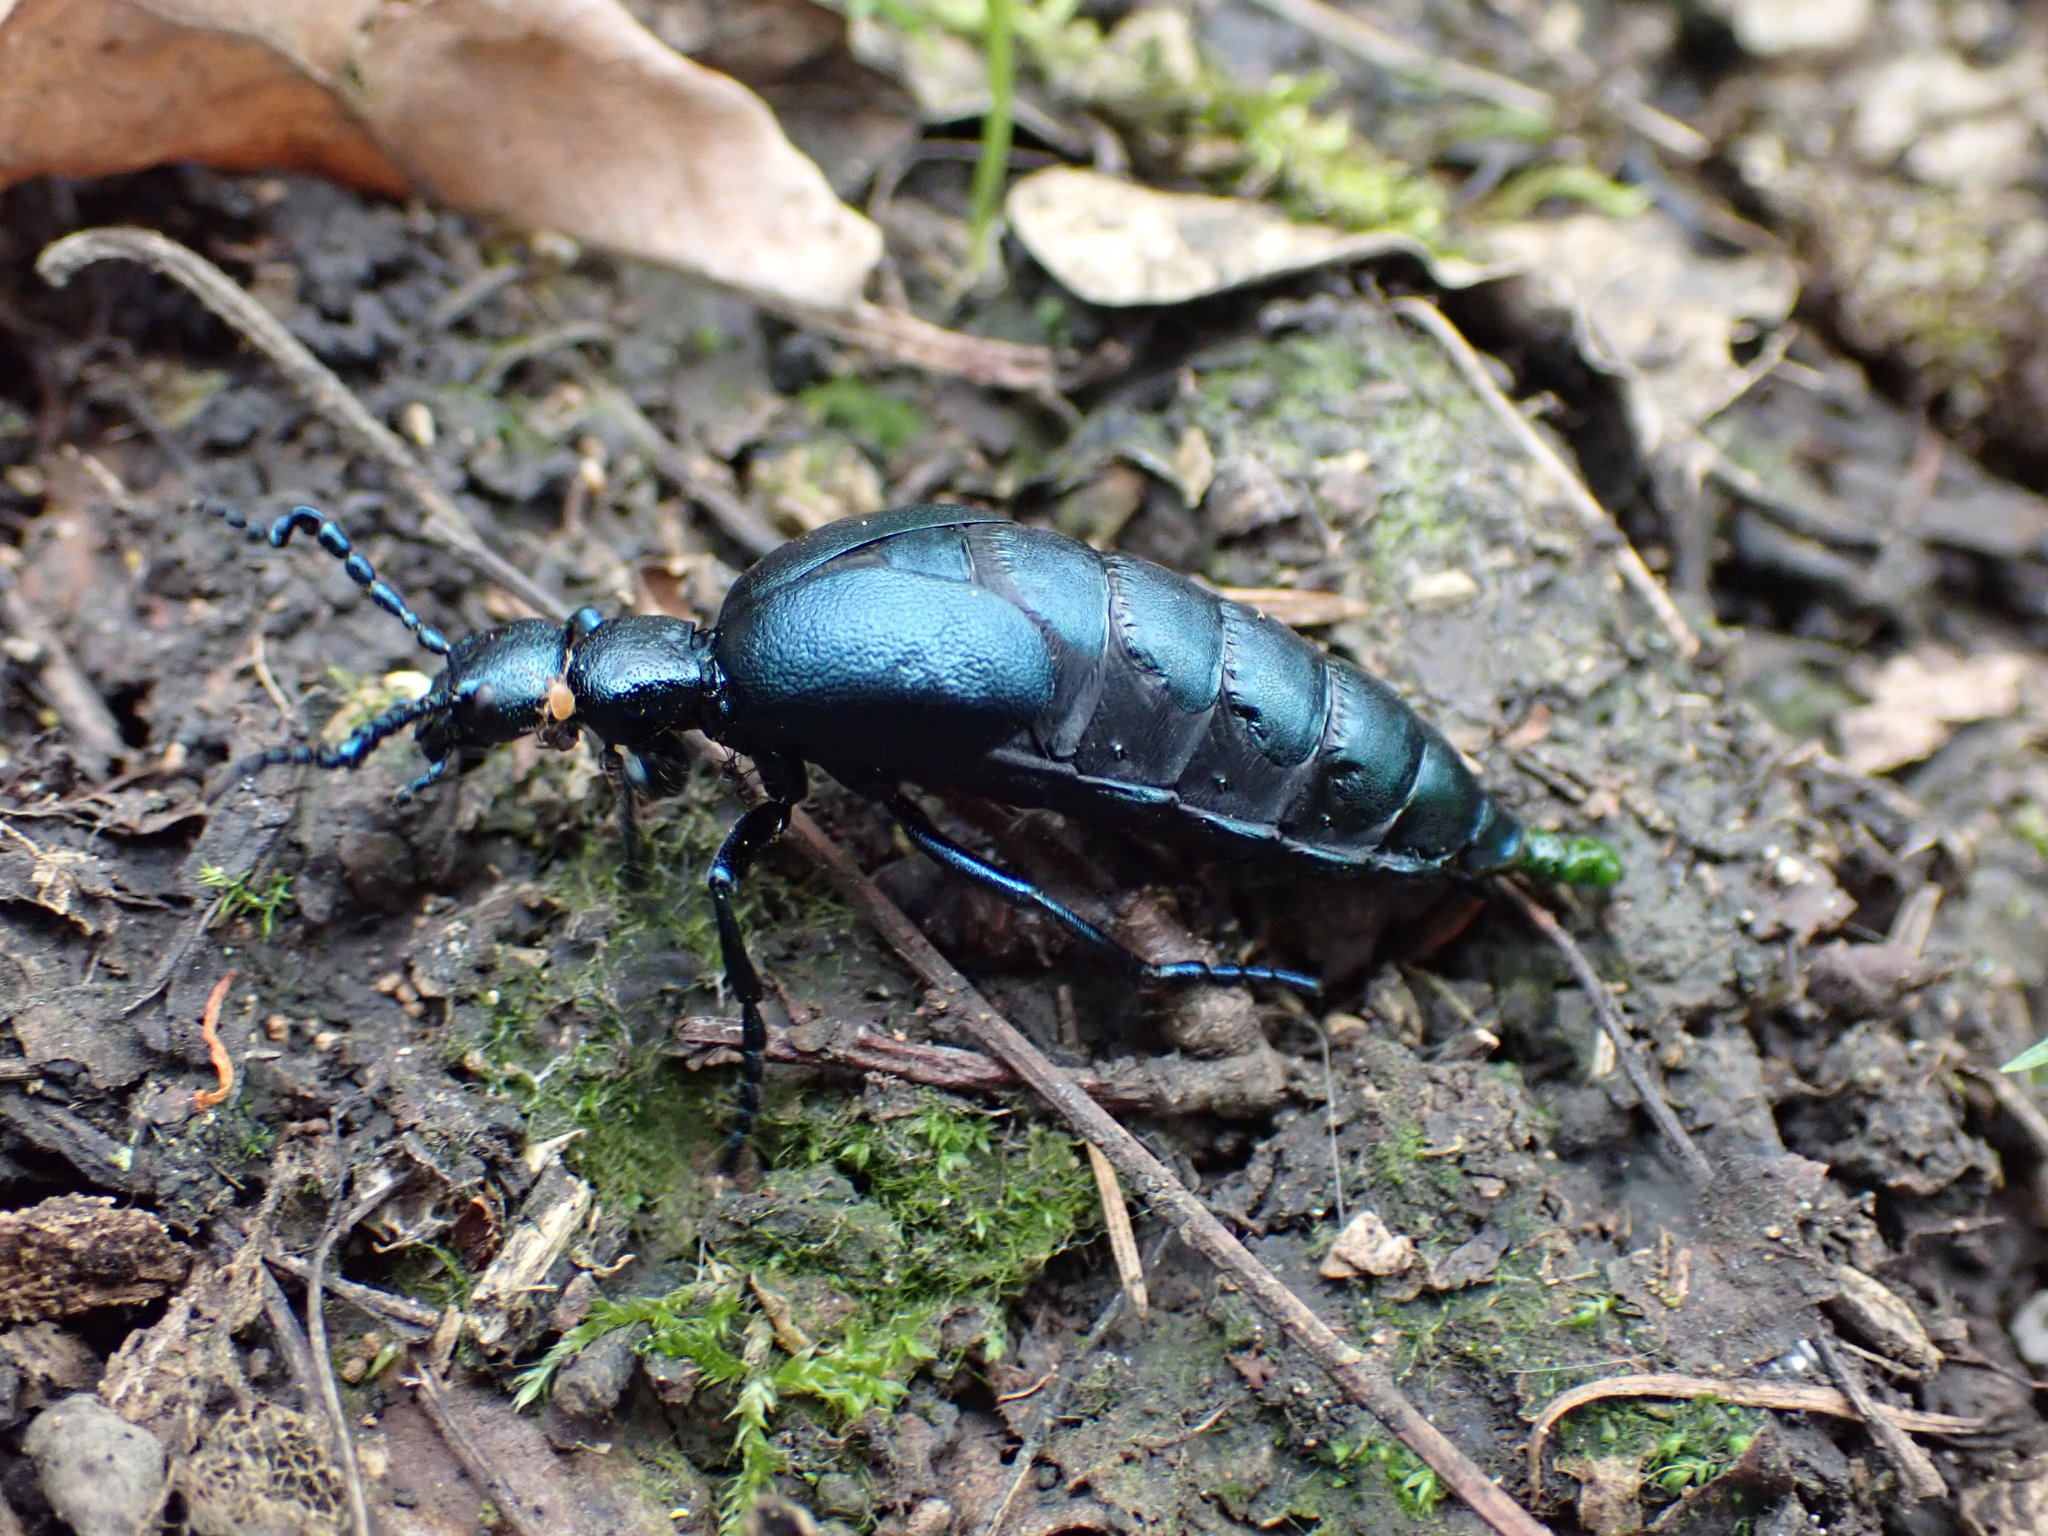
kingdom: Animalia
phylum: Arthropoda
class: Insecta
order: Coleoptera
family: Meloidae
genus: Meloe
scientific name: Meloe violaceus
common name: Violet oil-beetle
